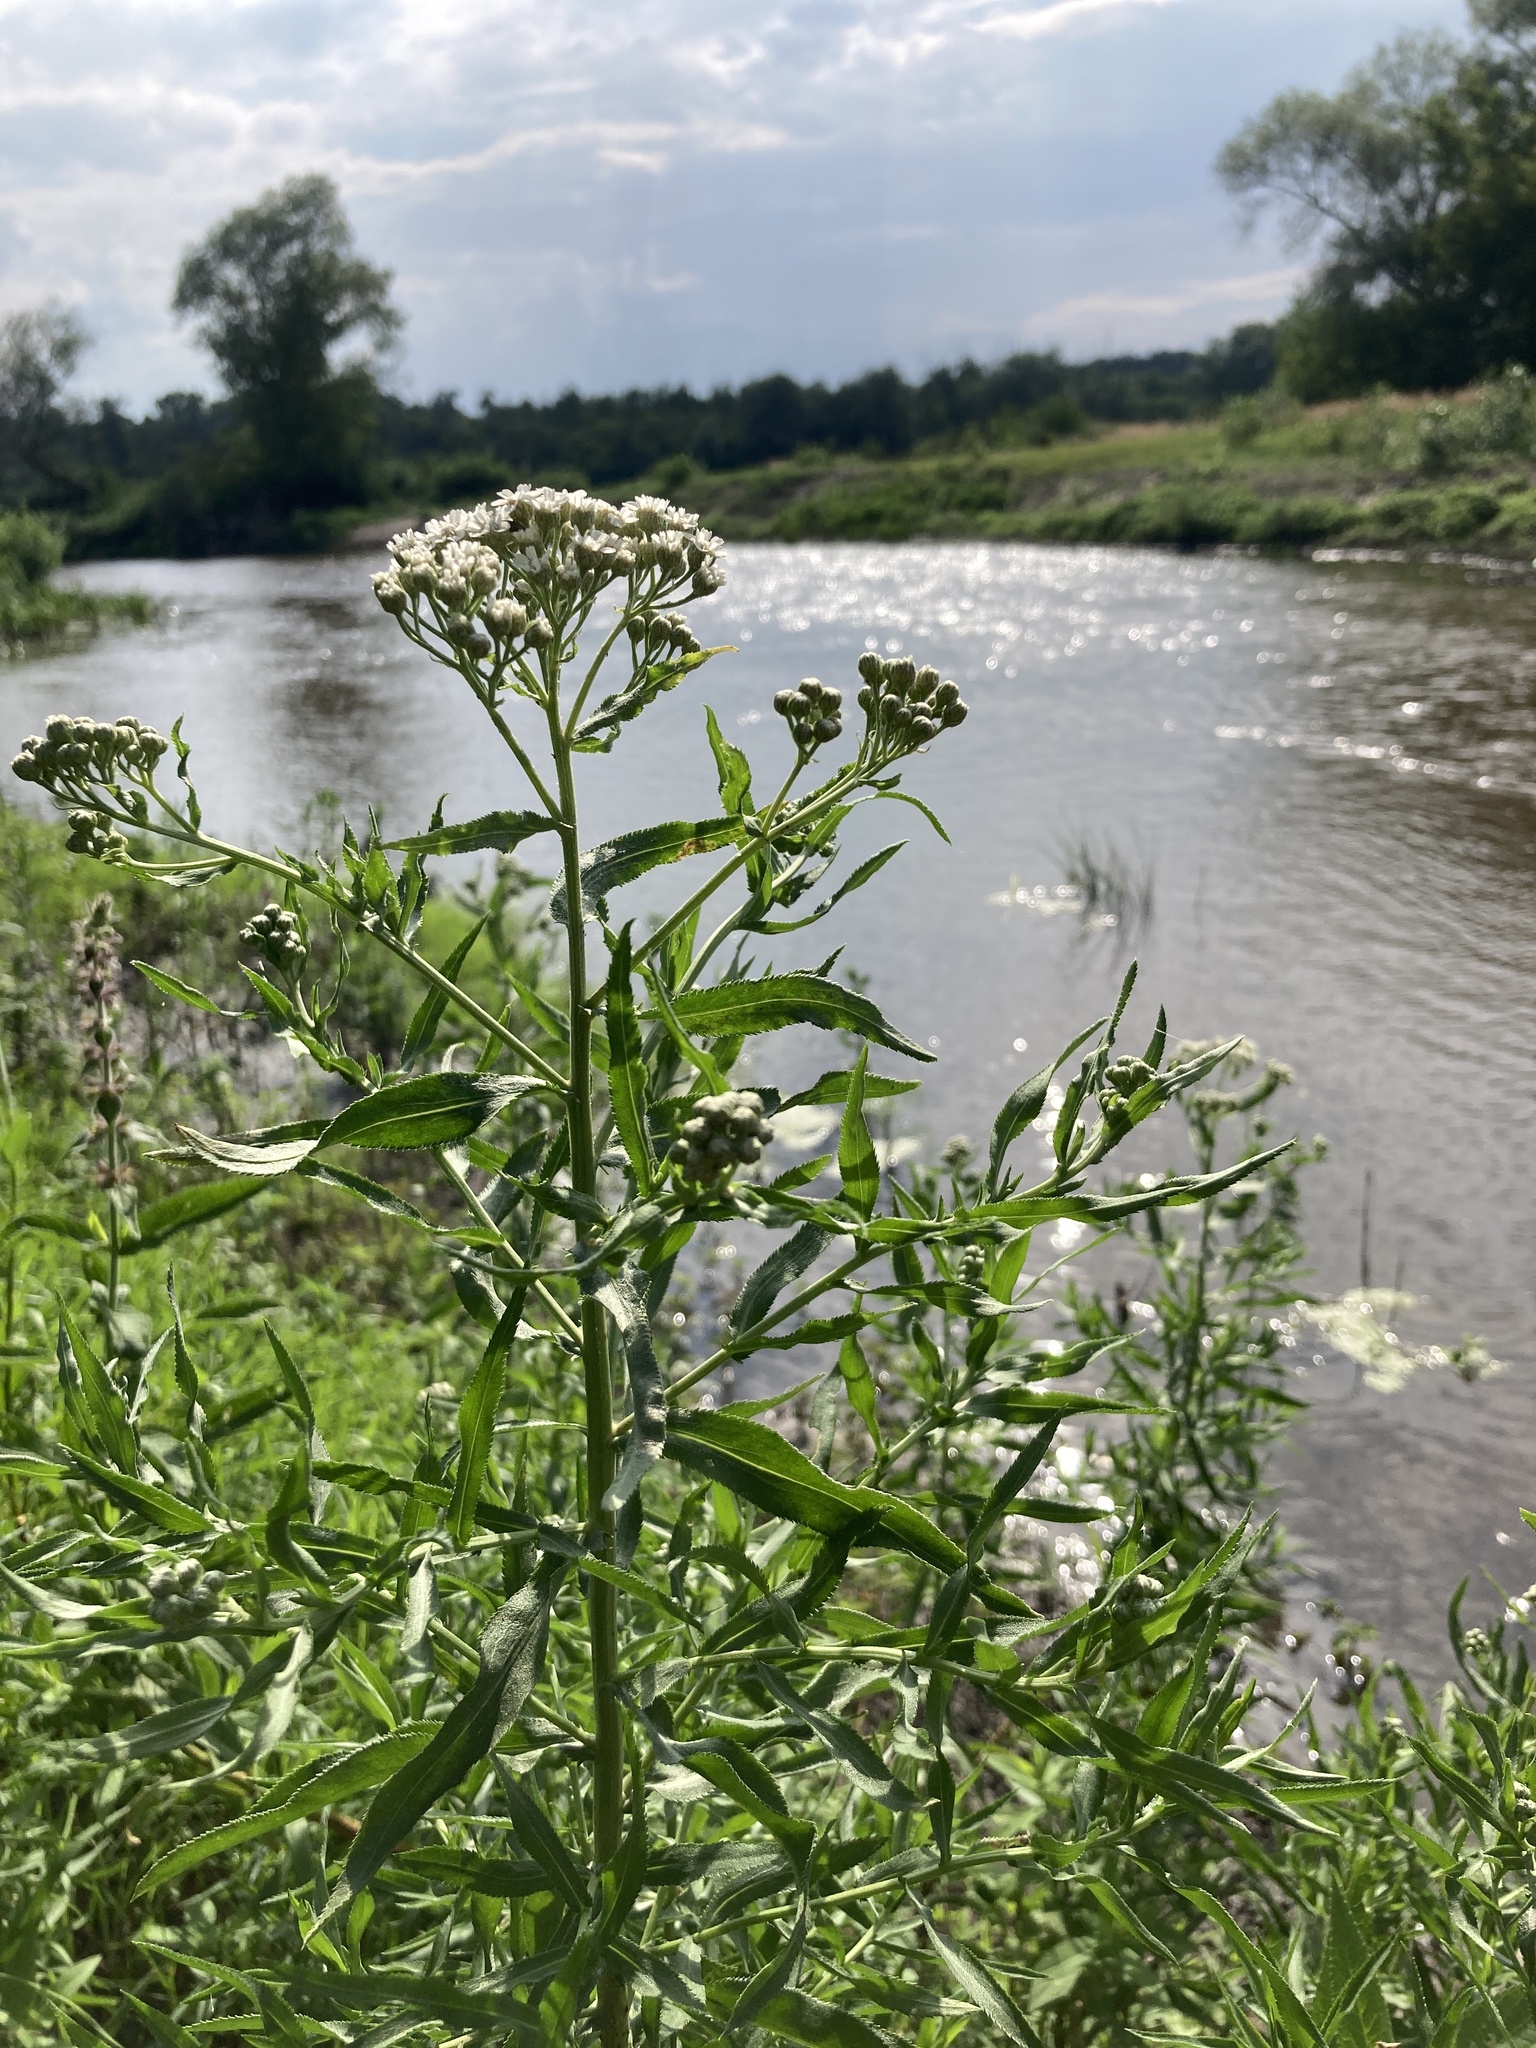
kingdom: Plantae
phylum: Tracheophyta
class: Magnoliopsida
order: Asterales
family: Asteraceae
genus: Achillea
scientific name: Achillea salicifolia
